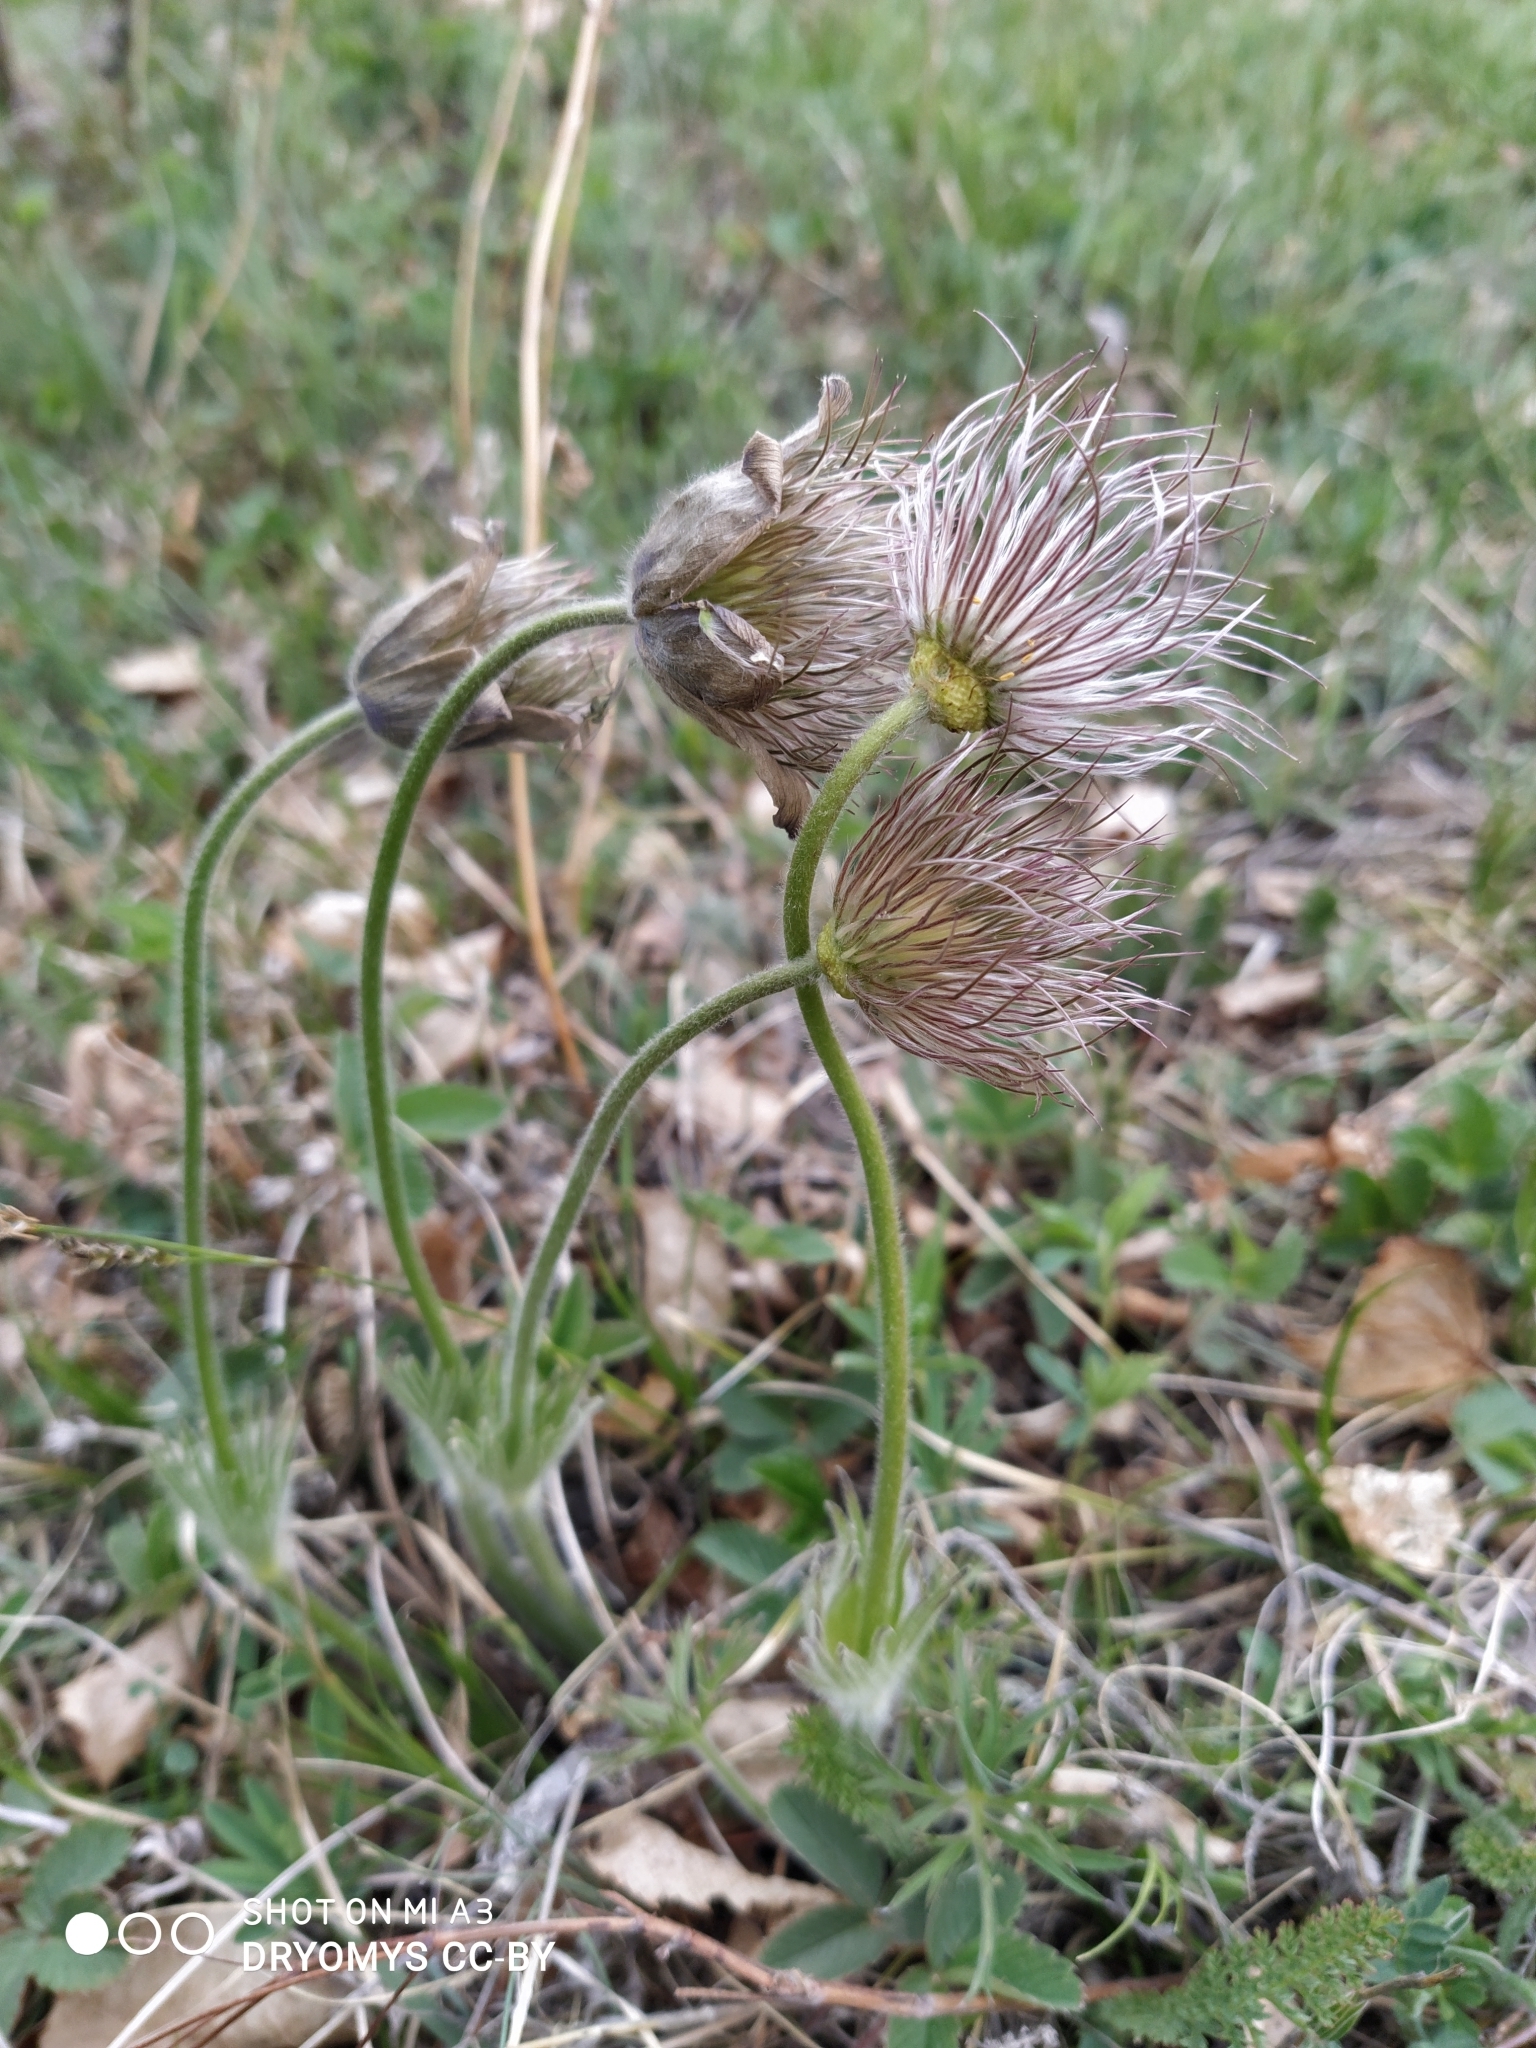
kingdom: Plantae
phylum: Tracheophyta
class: Magnoliopsida
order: Ranunculales
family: Ranunculaceae
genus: Pulsatilla
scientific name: Pulsatilla patens
